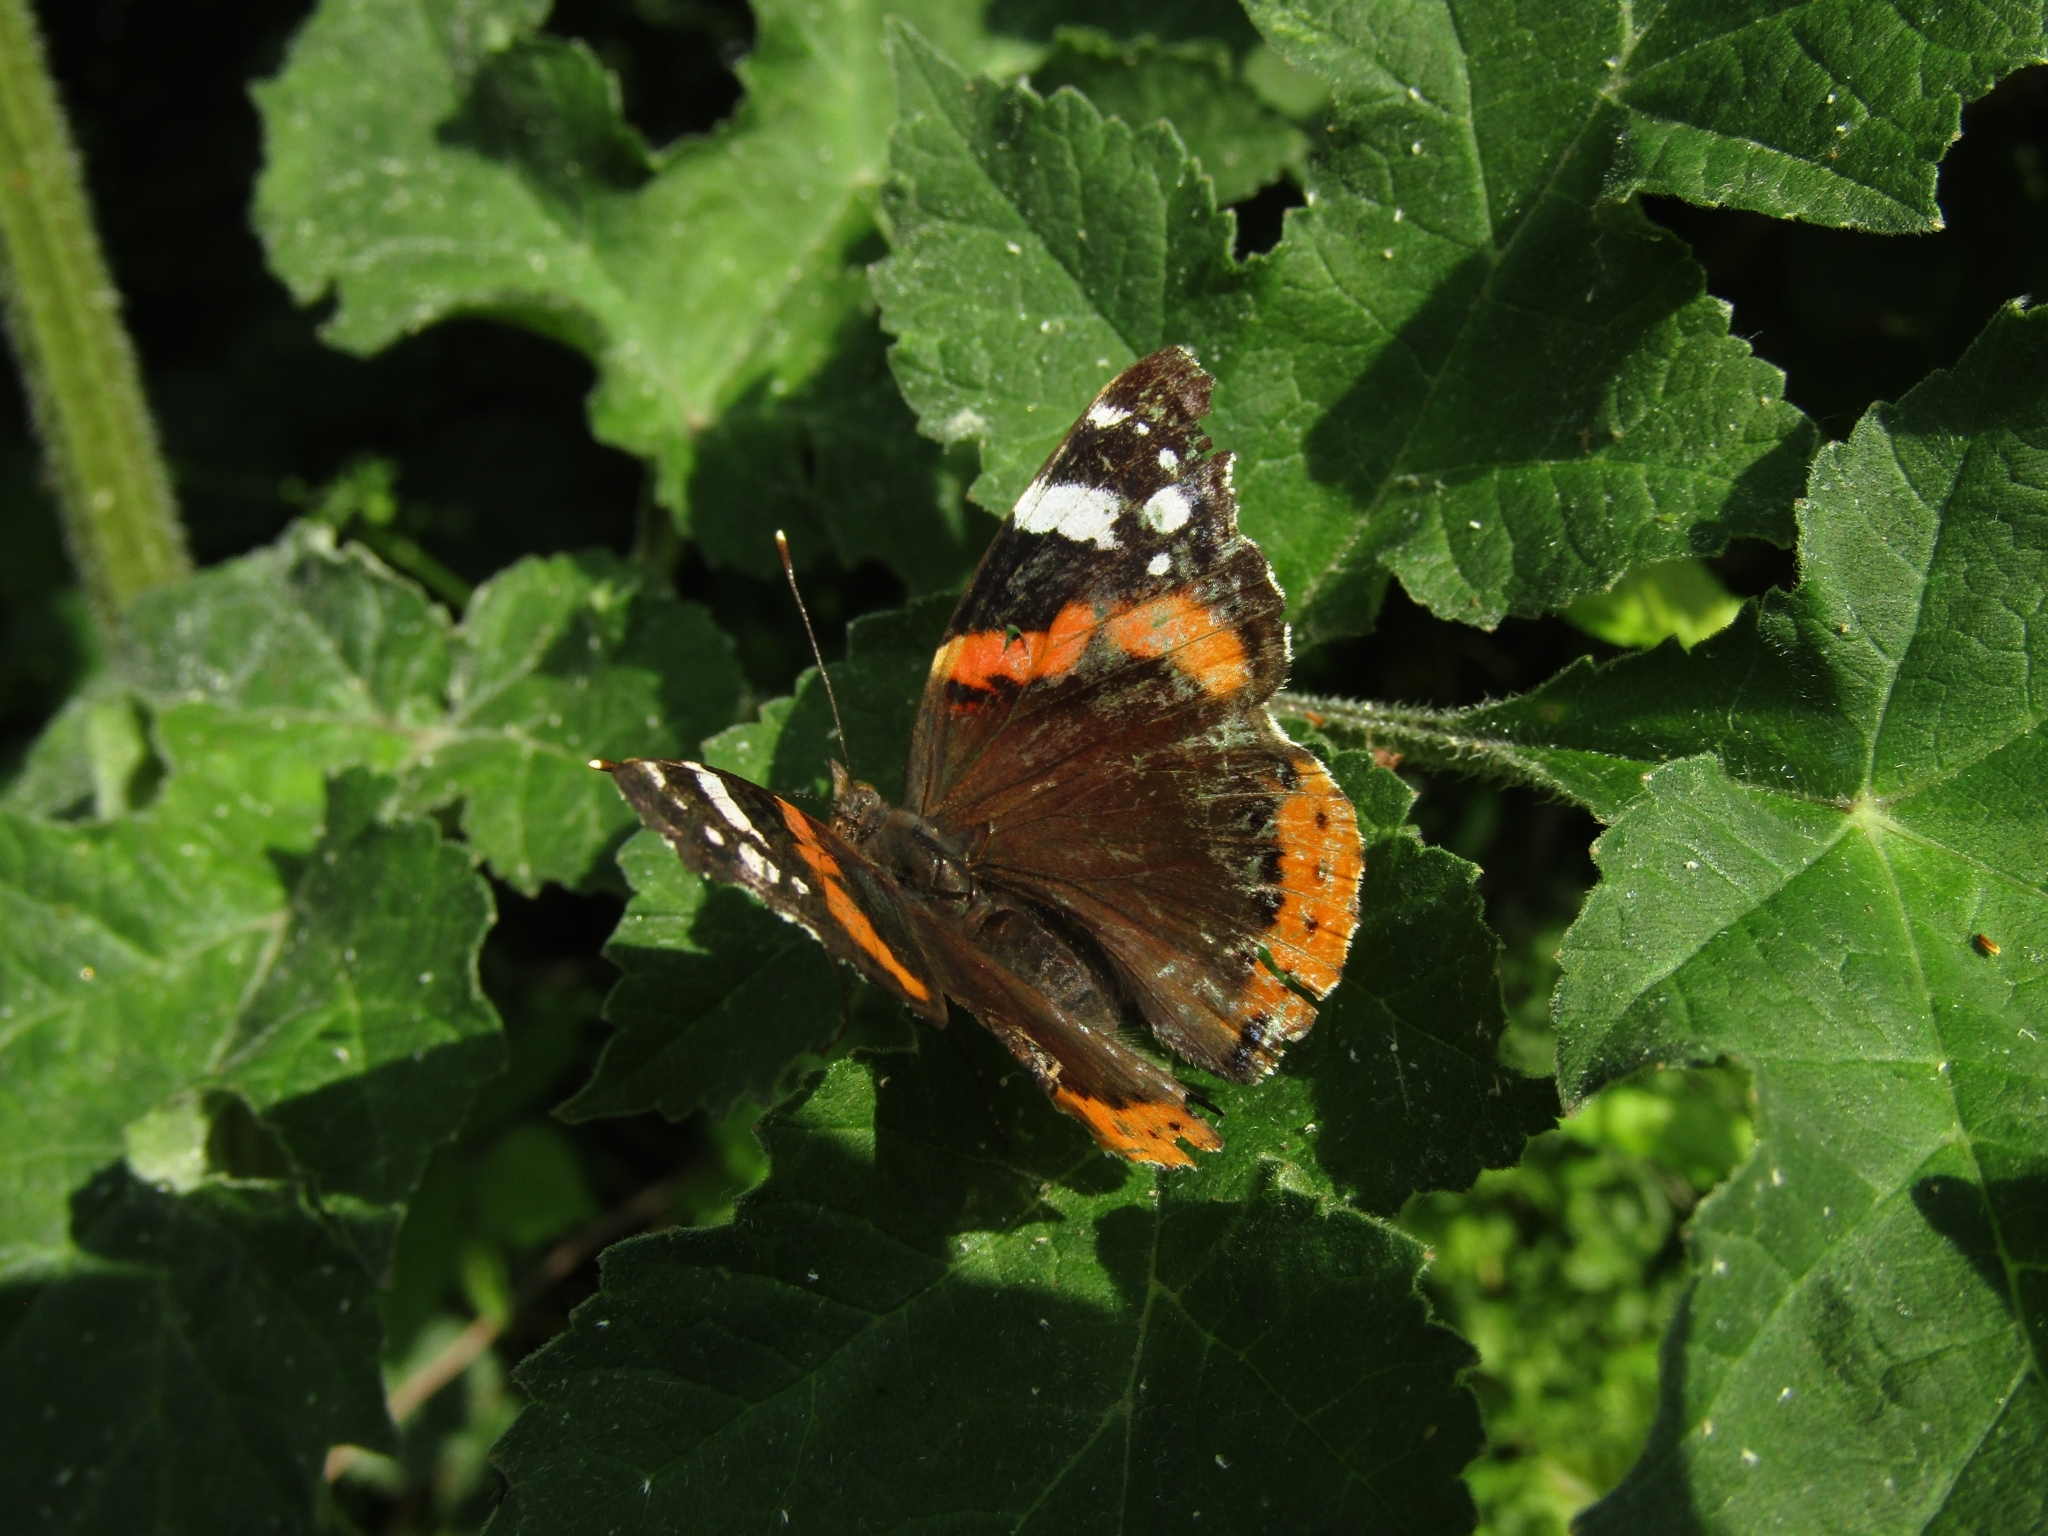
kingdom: Animalia
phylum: Arthropoda
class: Insecta
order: Lepidoptera
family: Nymphalidae
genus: Vanessa
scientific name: Vanessa atalanta
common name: Red admiral
